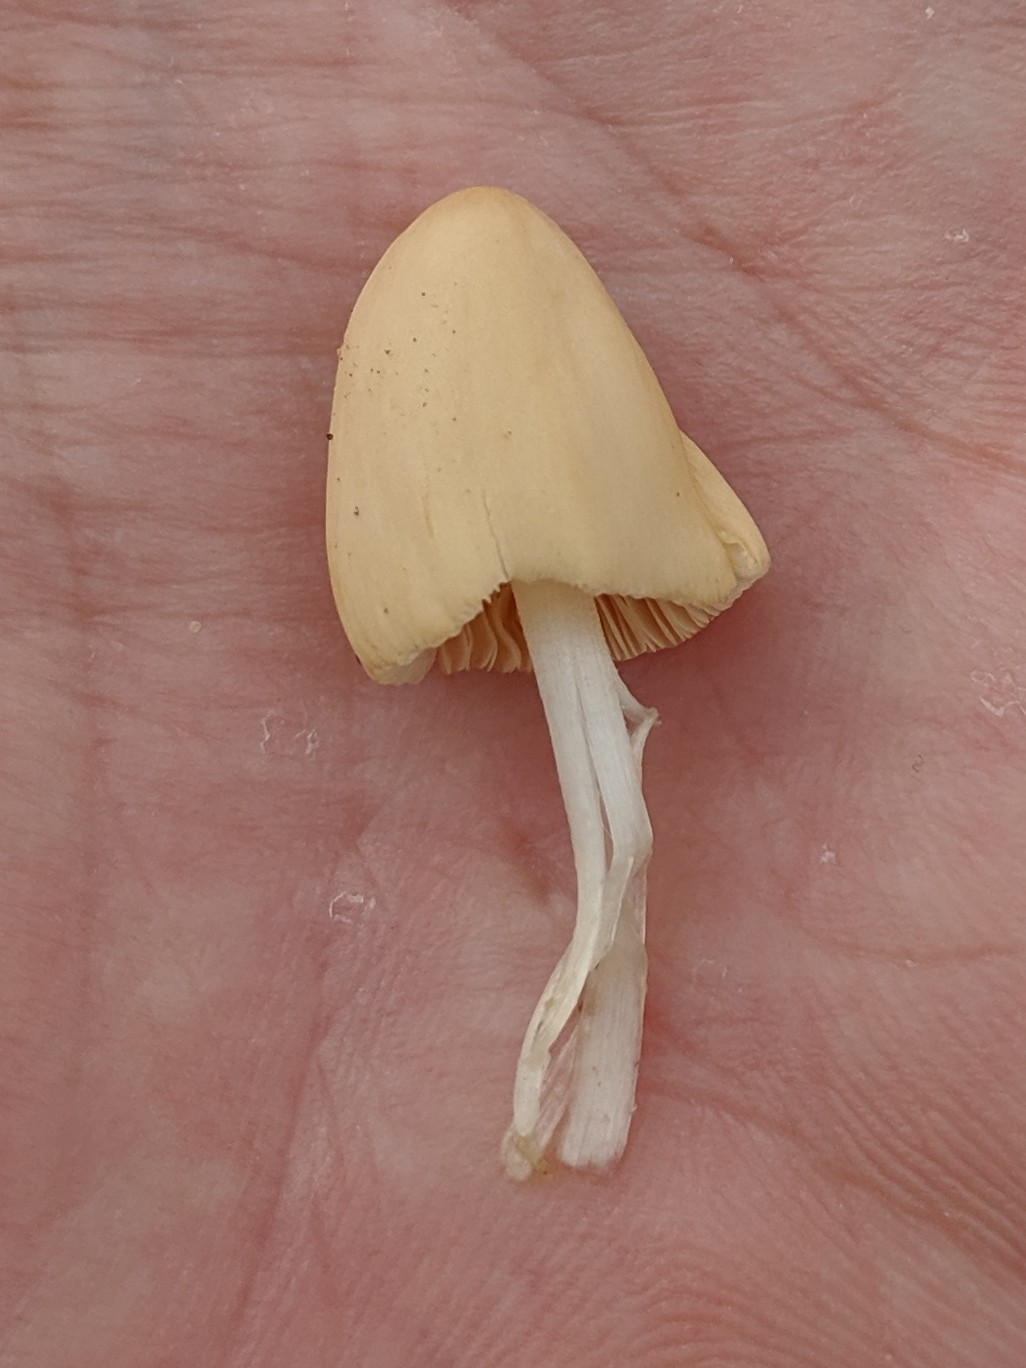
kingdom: Fungi
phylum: Basidiomycota
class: Agaricomycetes
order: Agaricales
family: Bolbitiaceae
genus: Conocybe
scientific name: Conocybe apala
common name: Milky conecap
